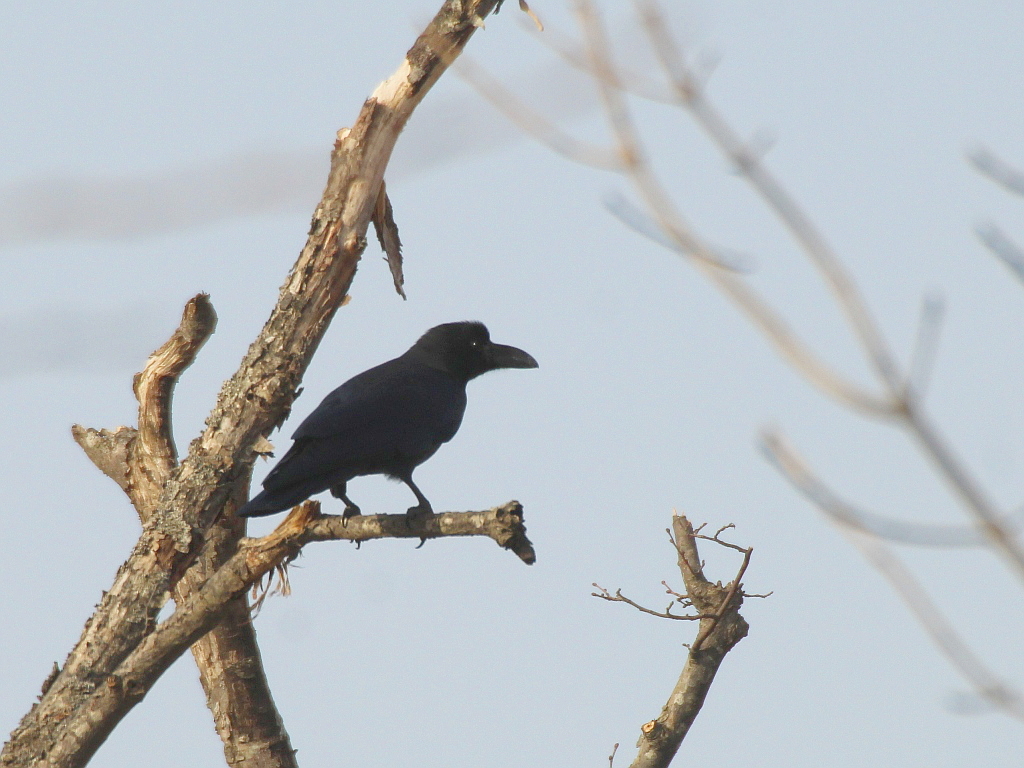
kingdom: Animalia
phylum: Chordata
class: Aves
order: Passeriformes
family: Corvidae
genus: Corvus
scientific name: Corvus macrorhynchos
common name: Large-billed crow
